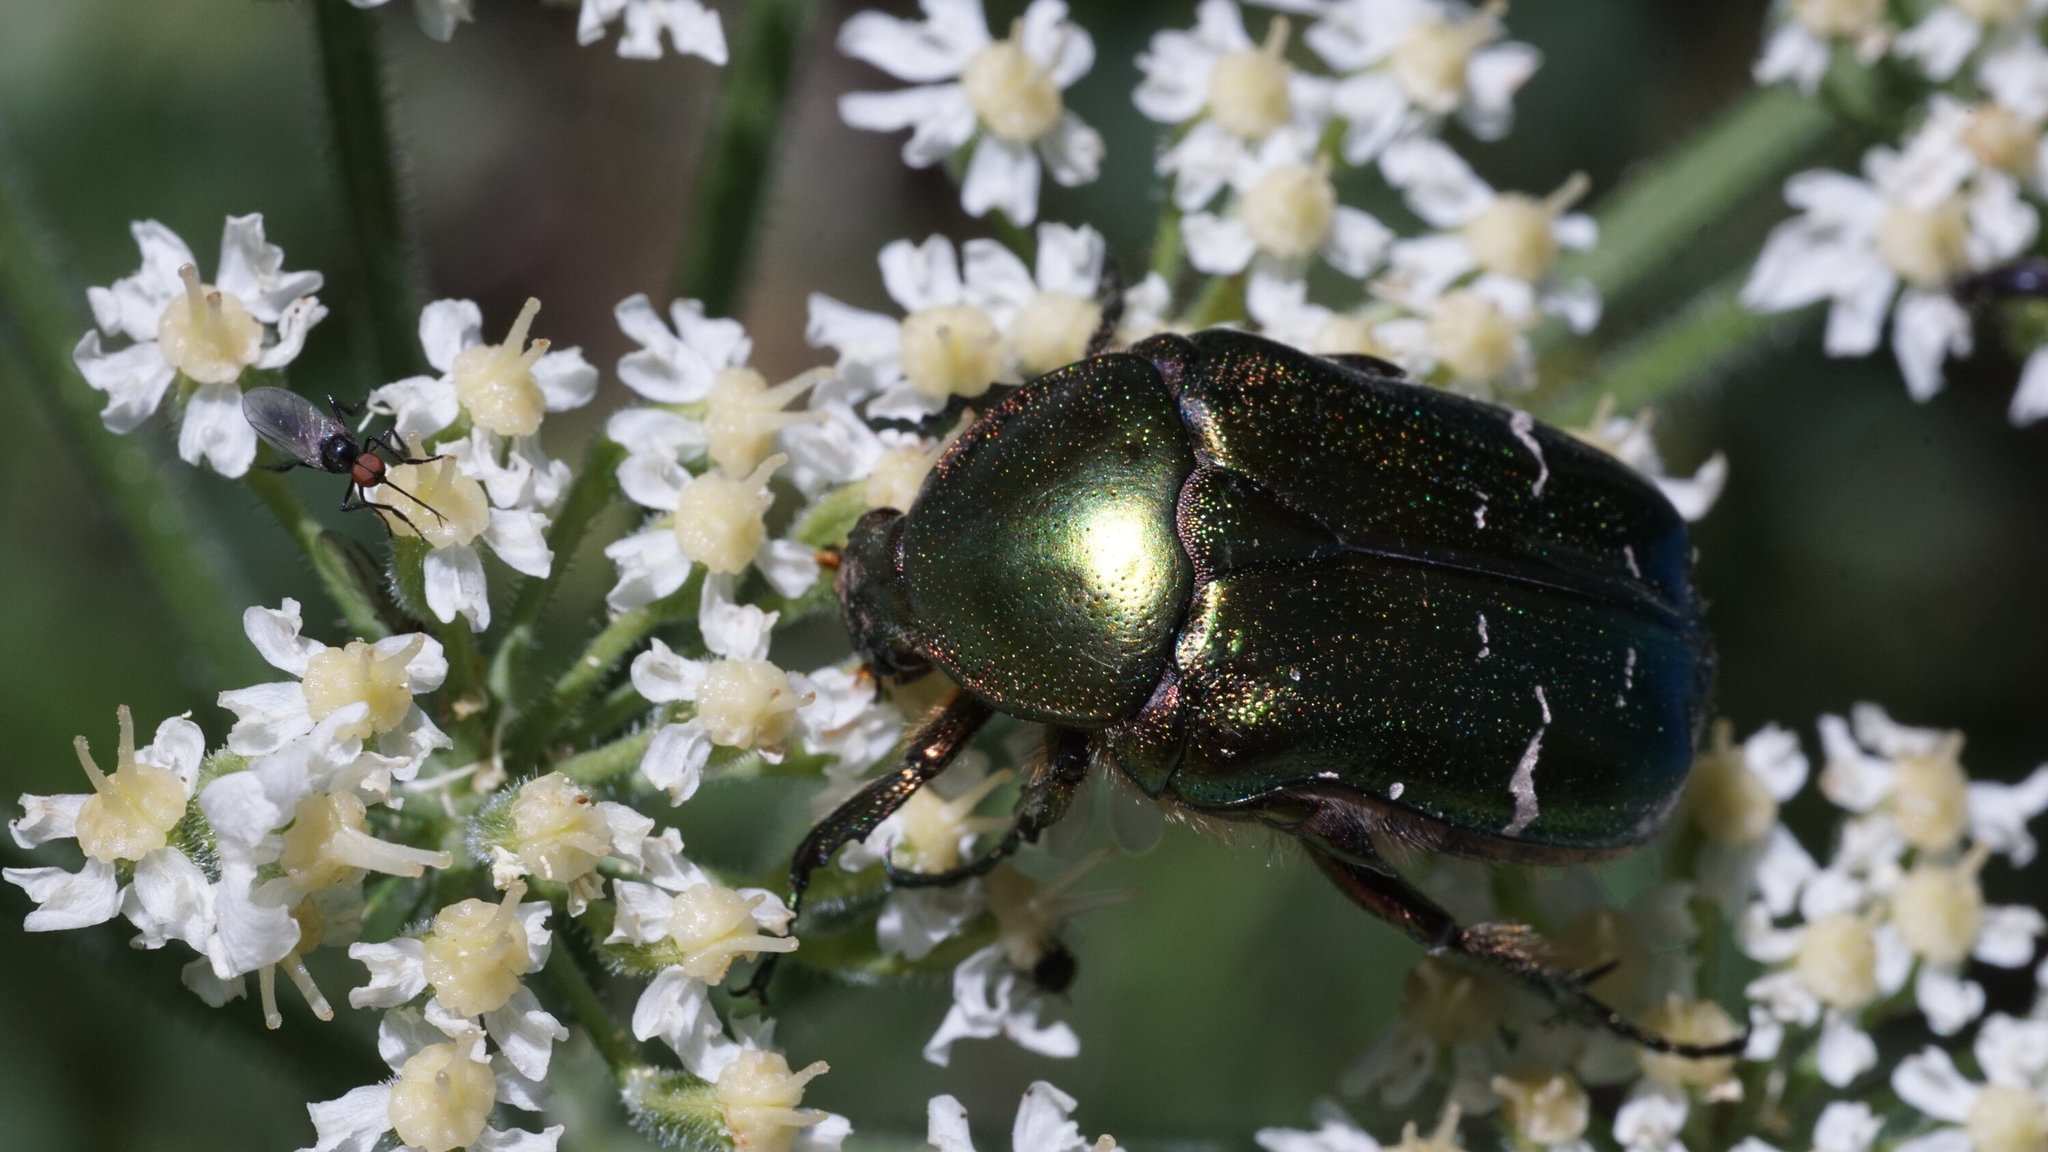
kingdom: Animalia
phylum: Arthropoda
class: Insecta
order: Coleoptera
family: Scarabaeidae
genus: Cetonia
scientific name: Cetonia aurata
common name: Rose chafer
